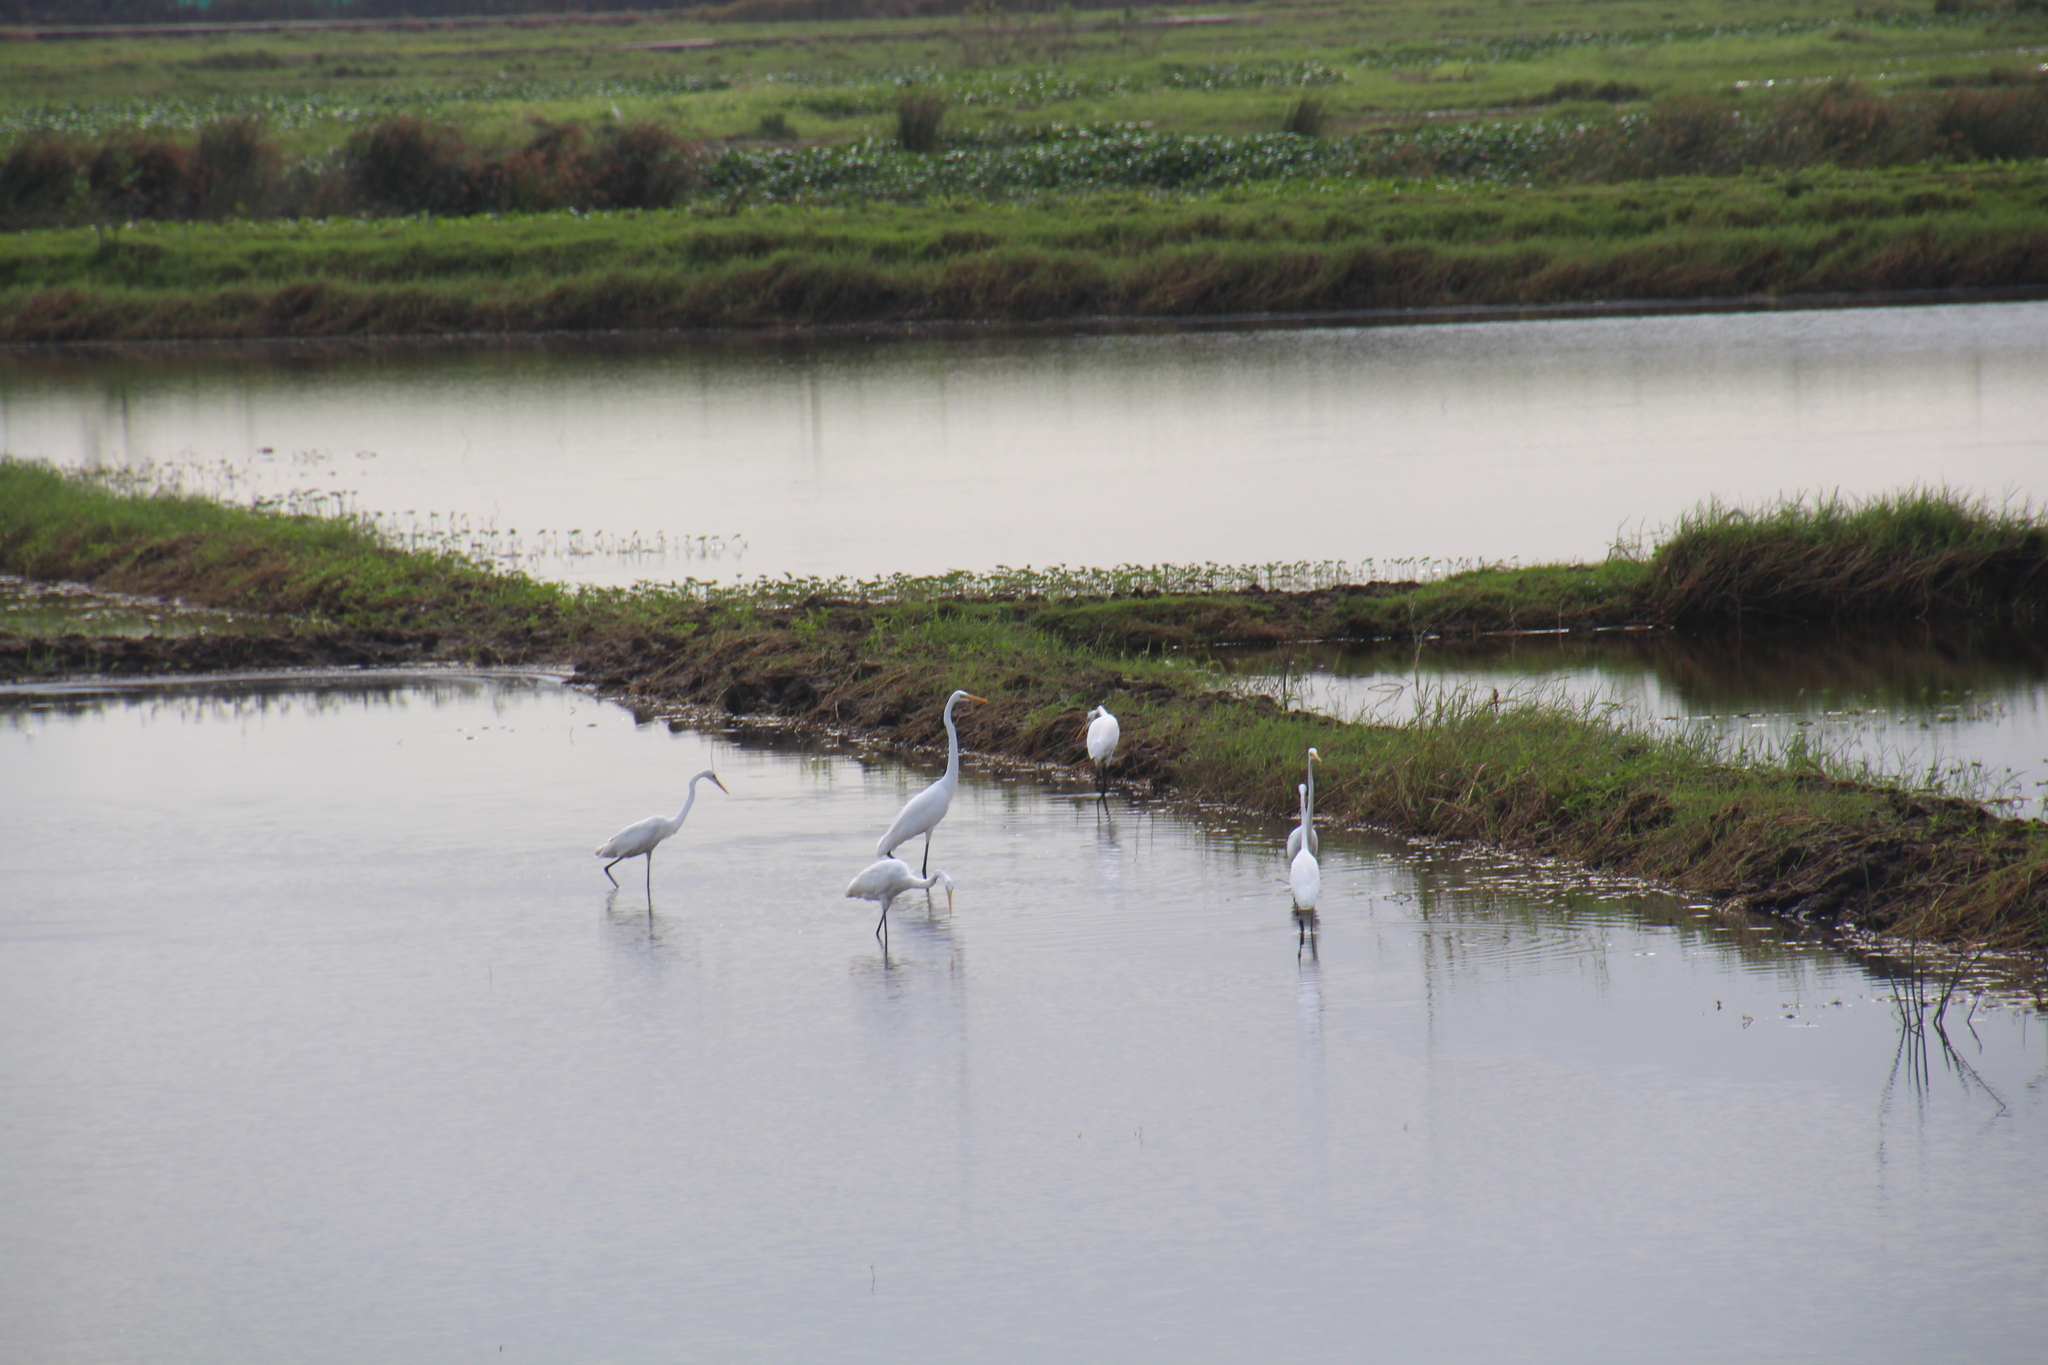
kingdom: Animalia
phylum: Chordata
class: Aves
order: Pelecaniformes
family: Ardeidae
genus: Ardea
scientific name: Ardea alba
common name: Great egret
